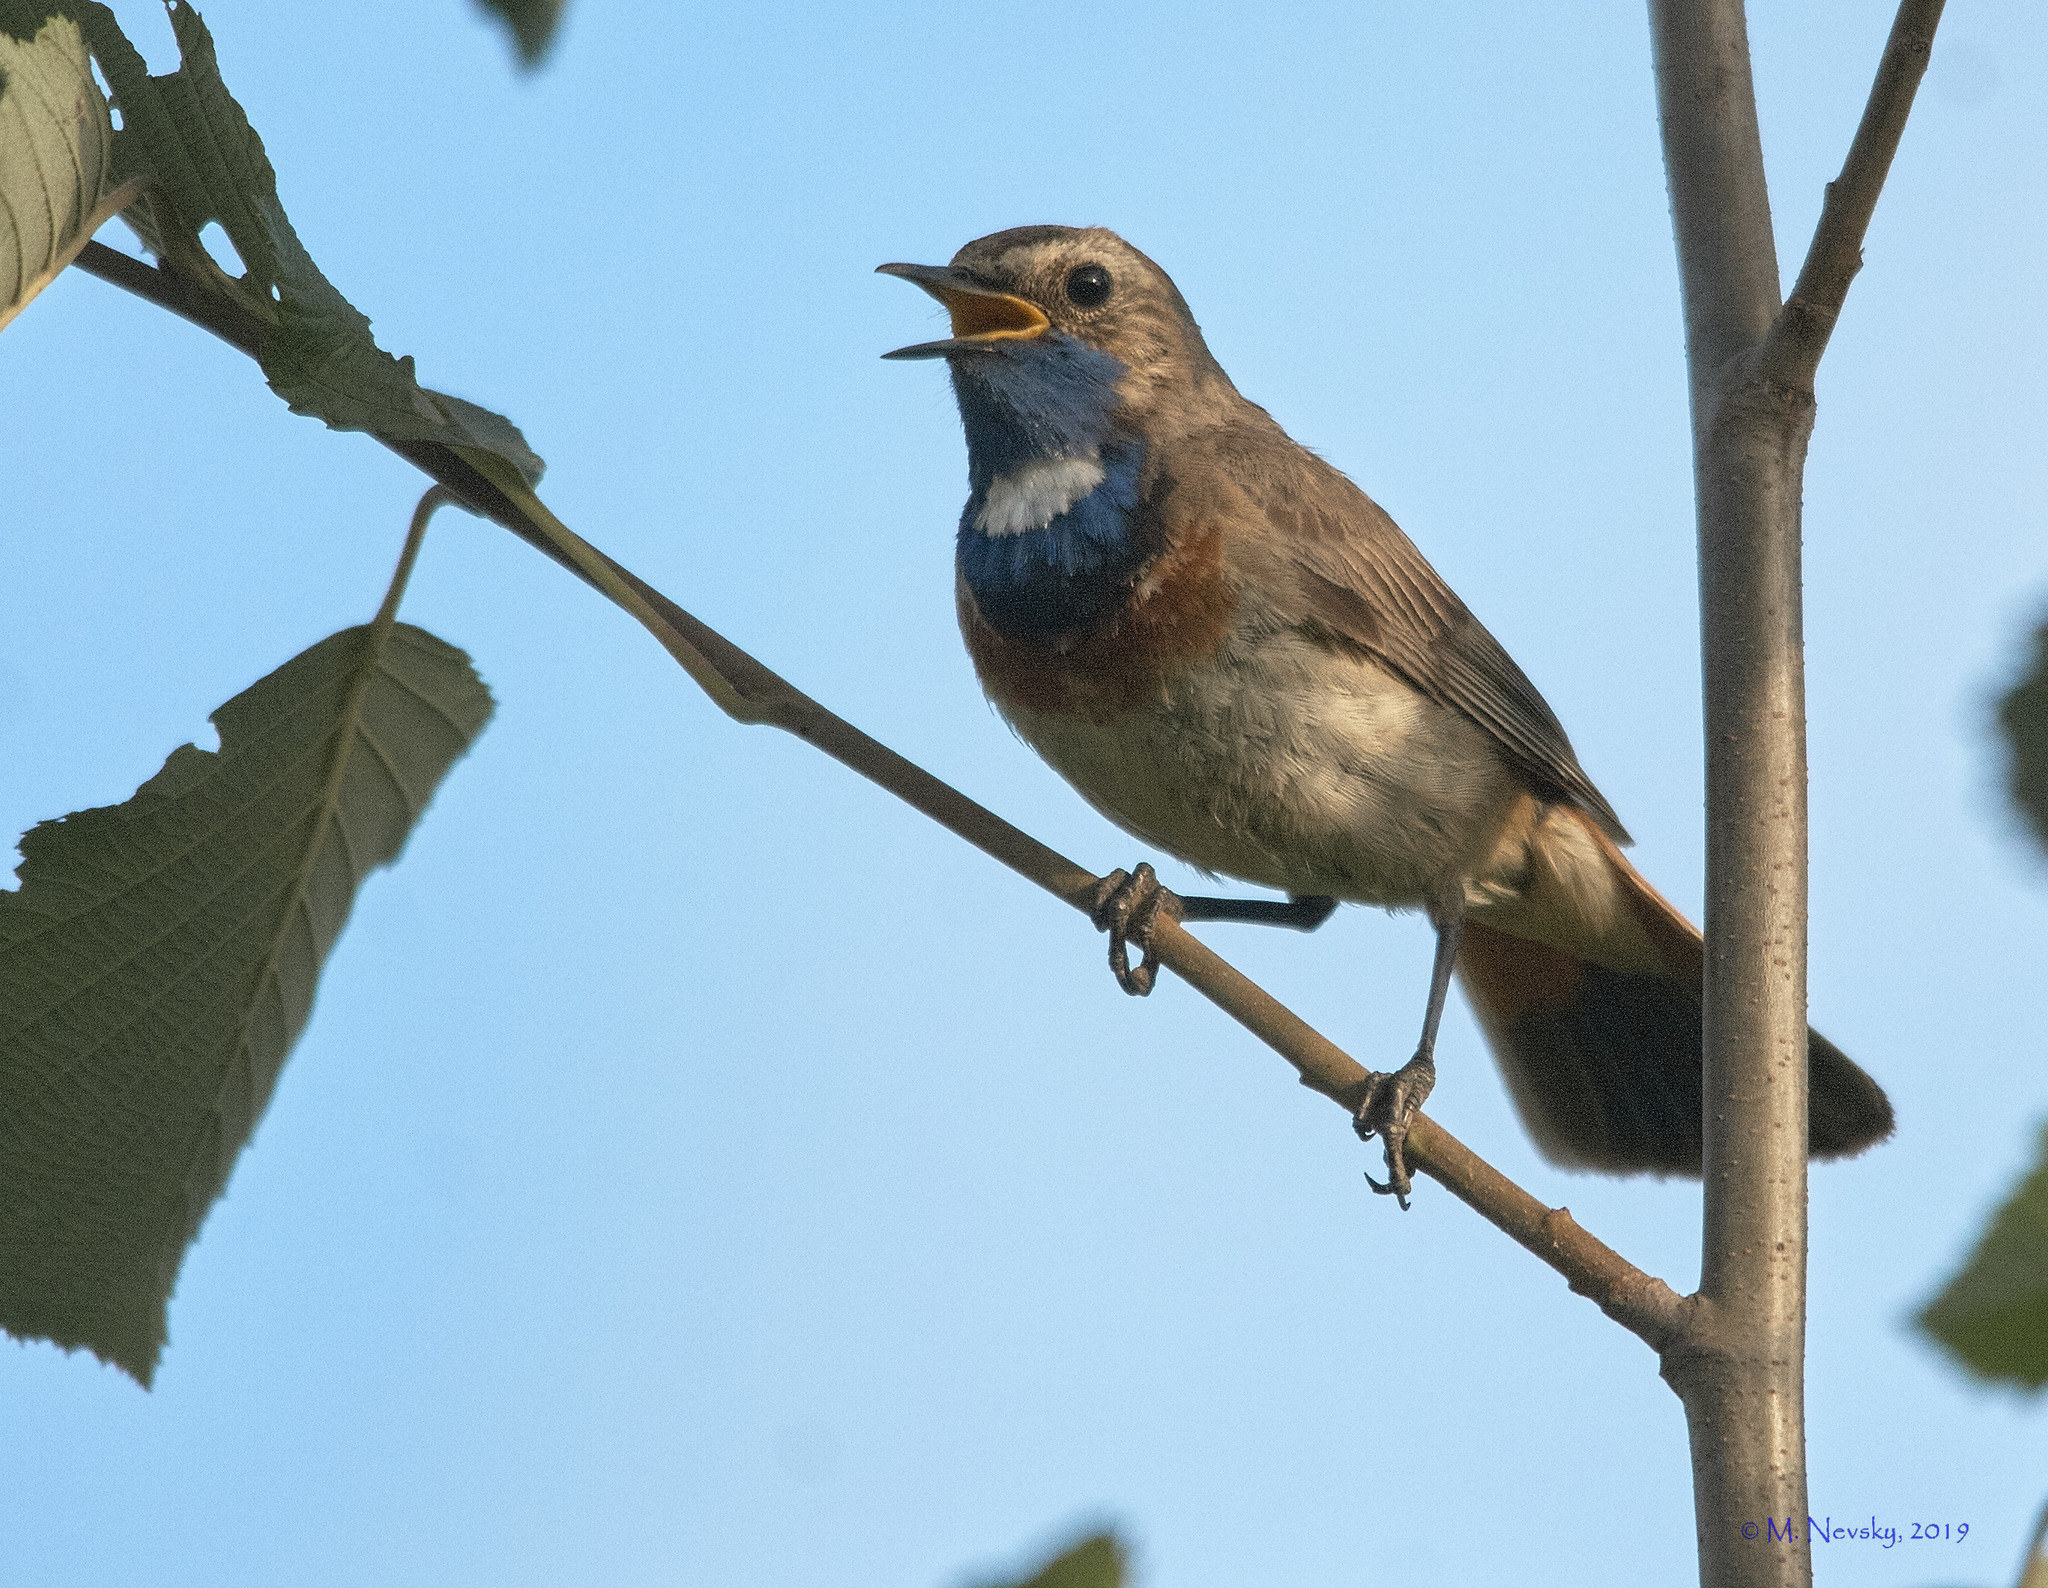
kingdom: Animalia
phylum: Chordata
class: Aves
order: Passeriformes
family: Muscicapidae
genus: Luscinia
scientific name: Luscinia svecica
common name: Bluethroat
